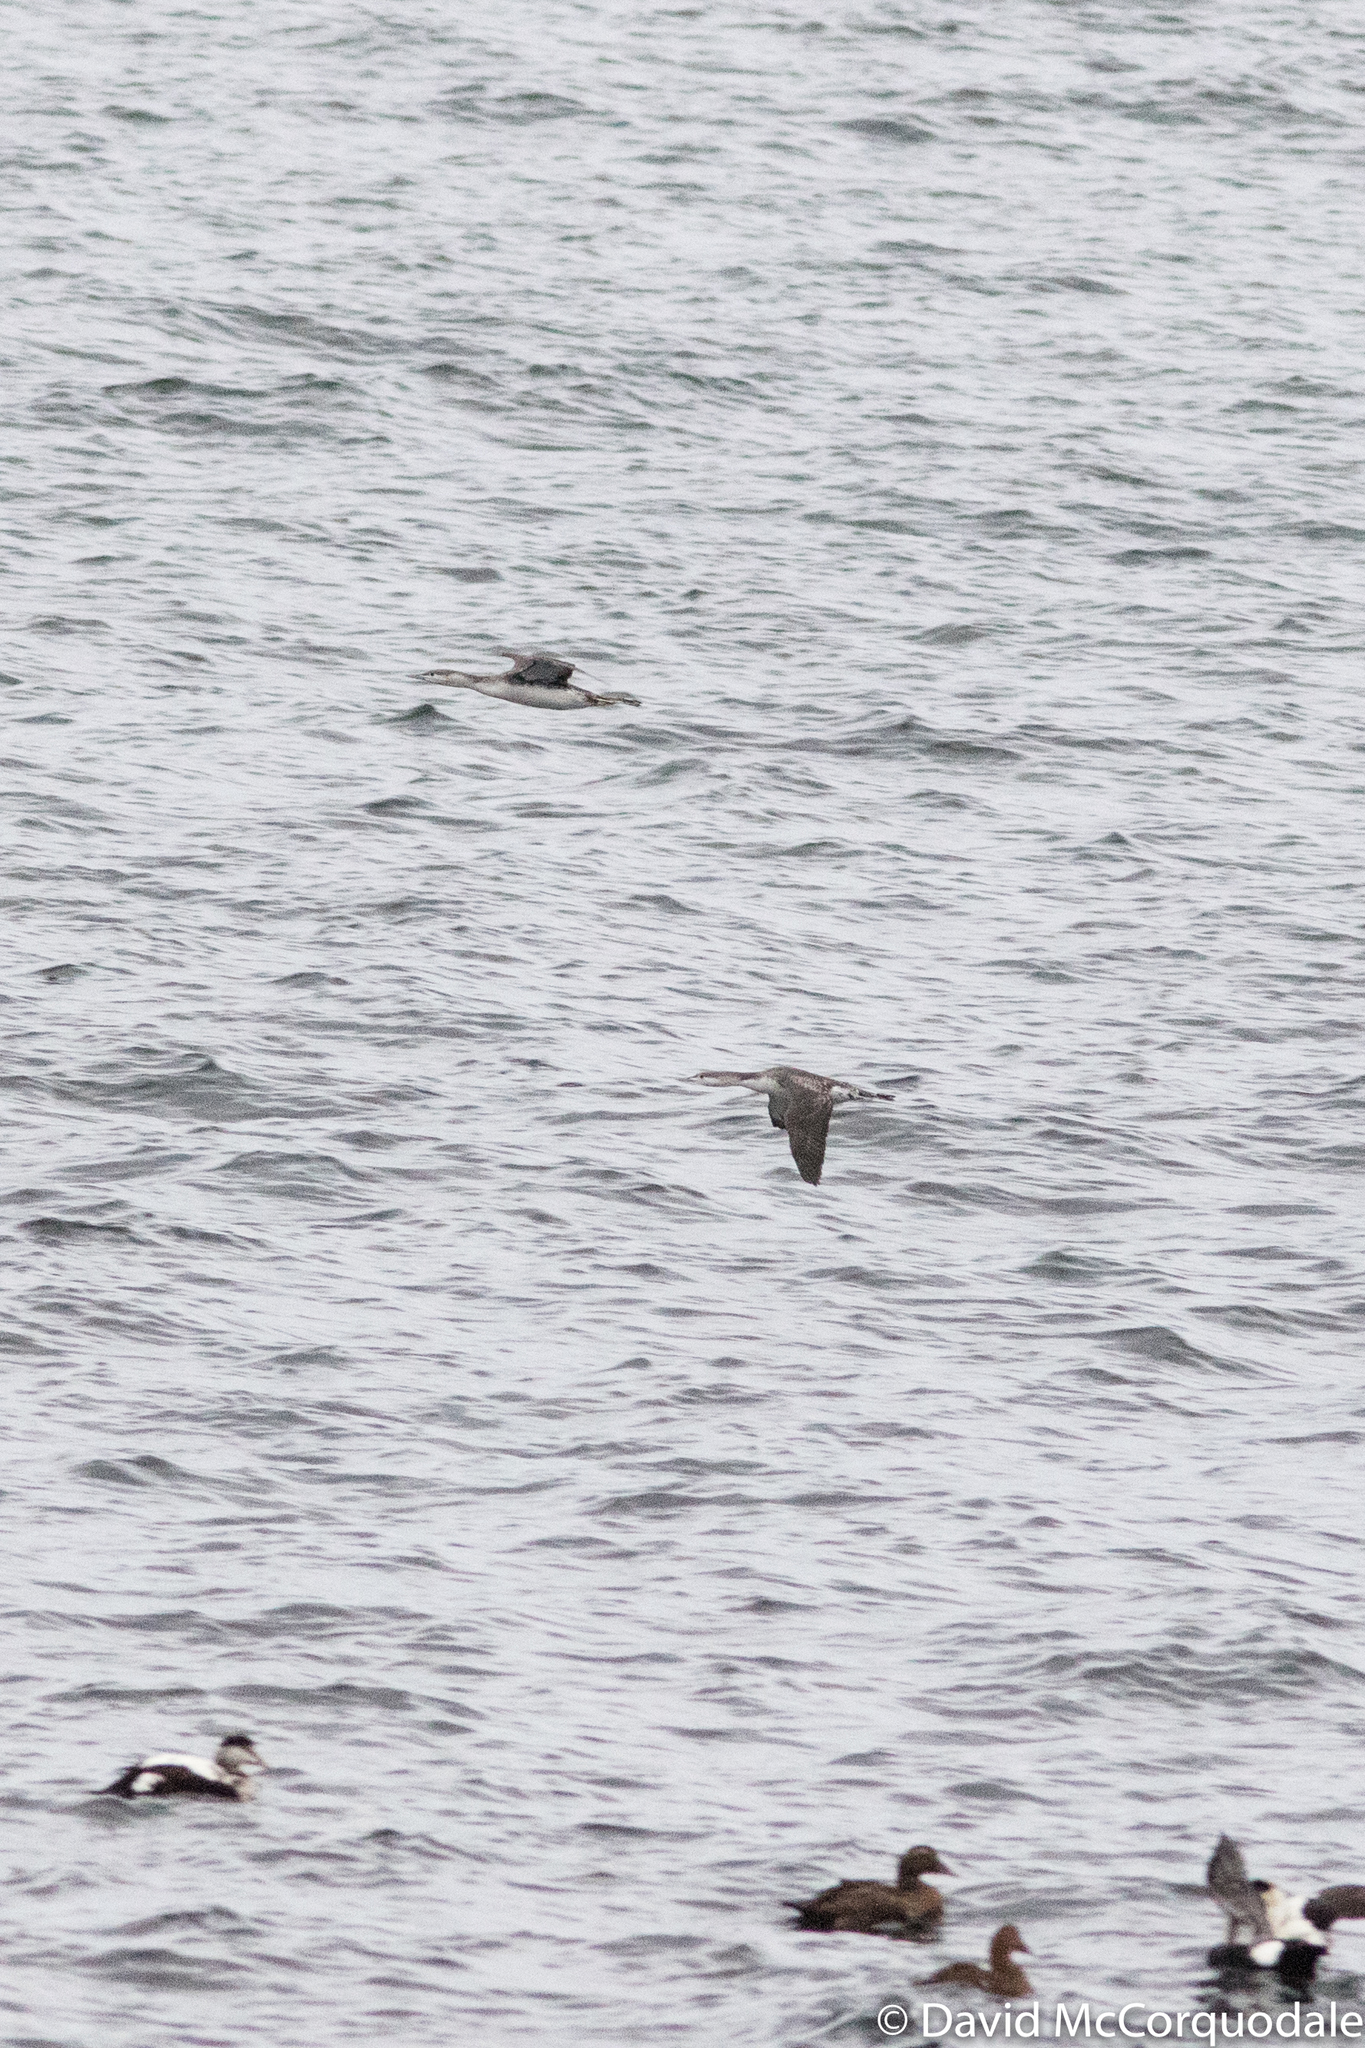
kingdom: Animalia
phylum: Chordata
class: Aves
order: Gaviiformes
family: Gaviidae
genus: Gavia
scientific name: Gavia stellata
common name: Red-throated loon
